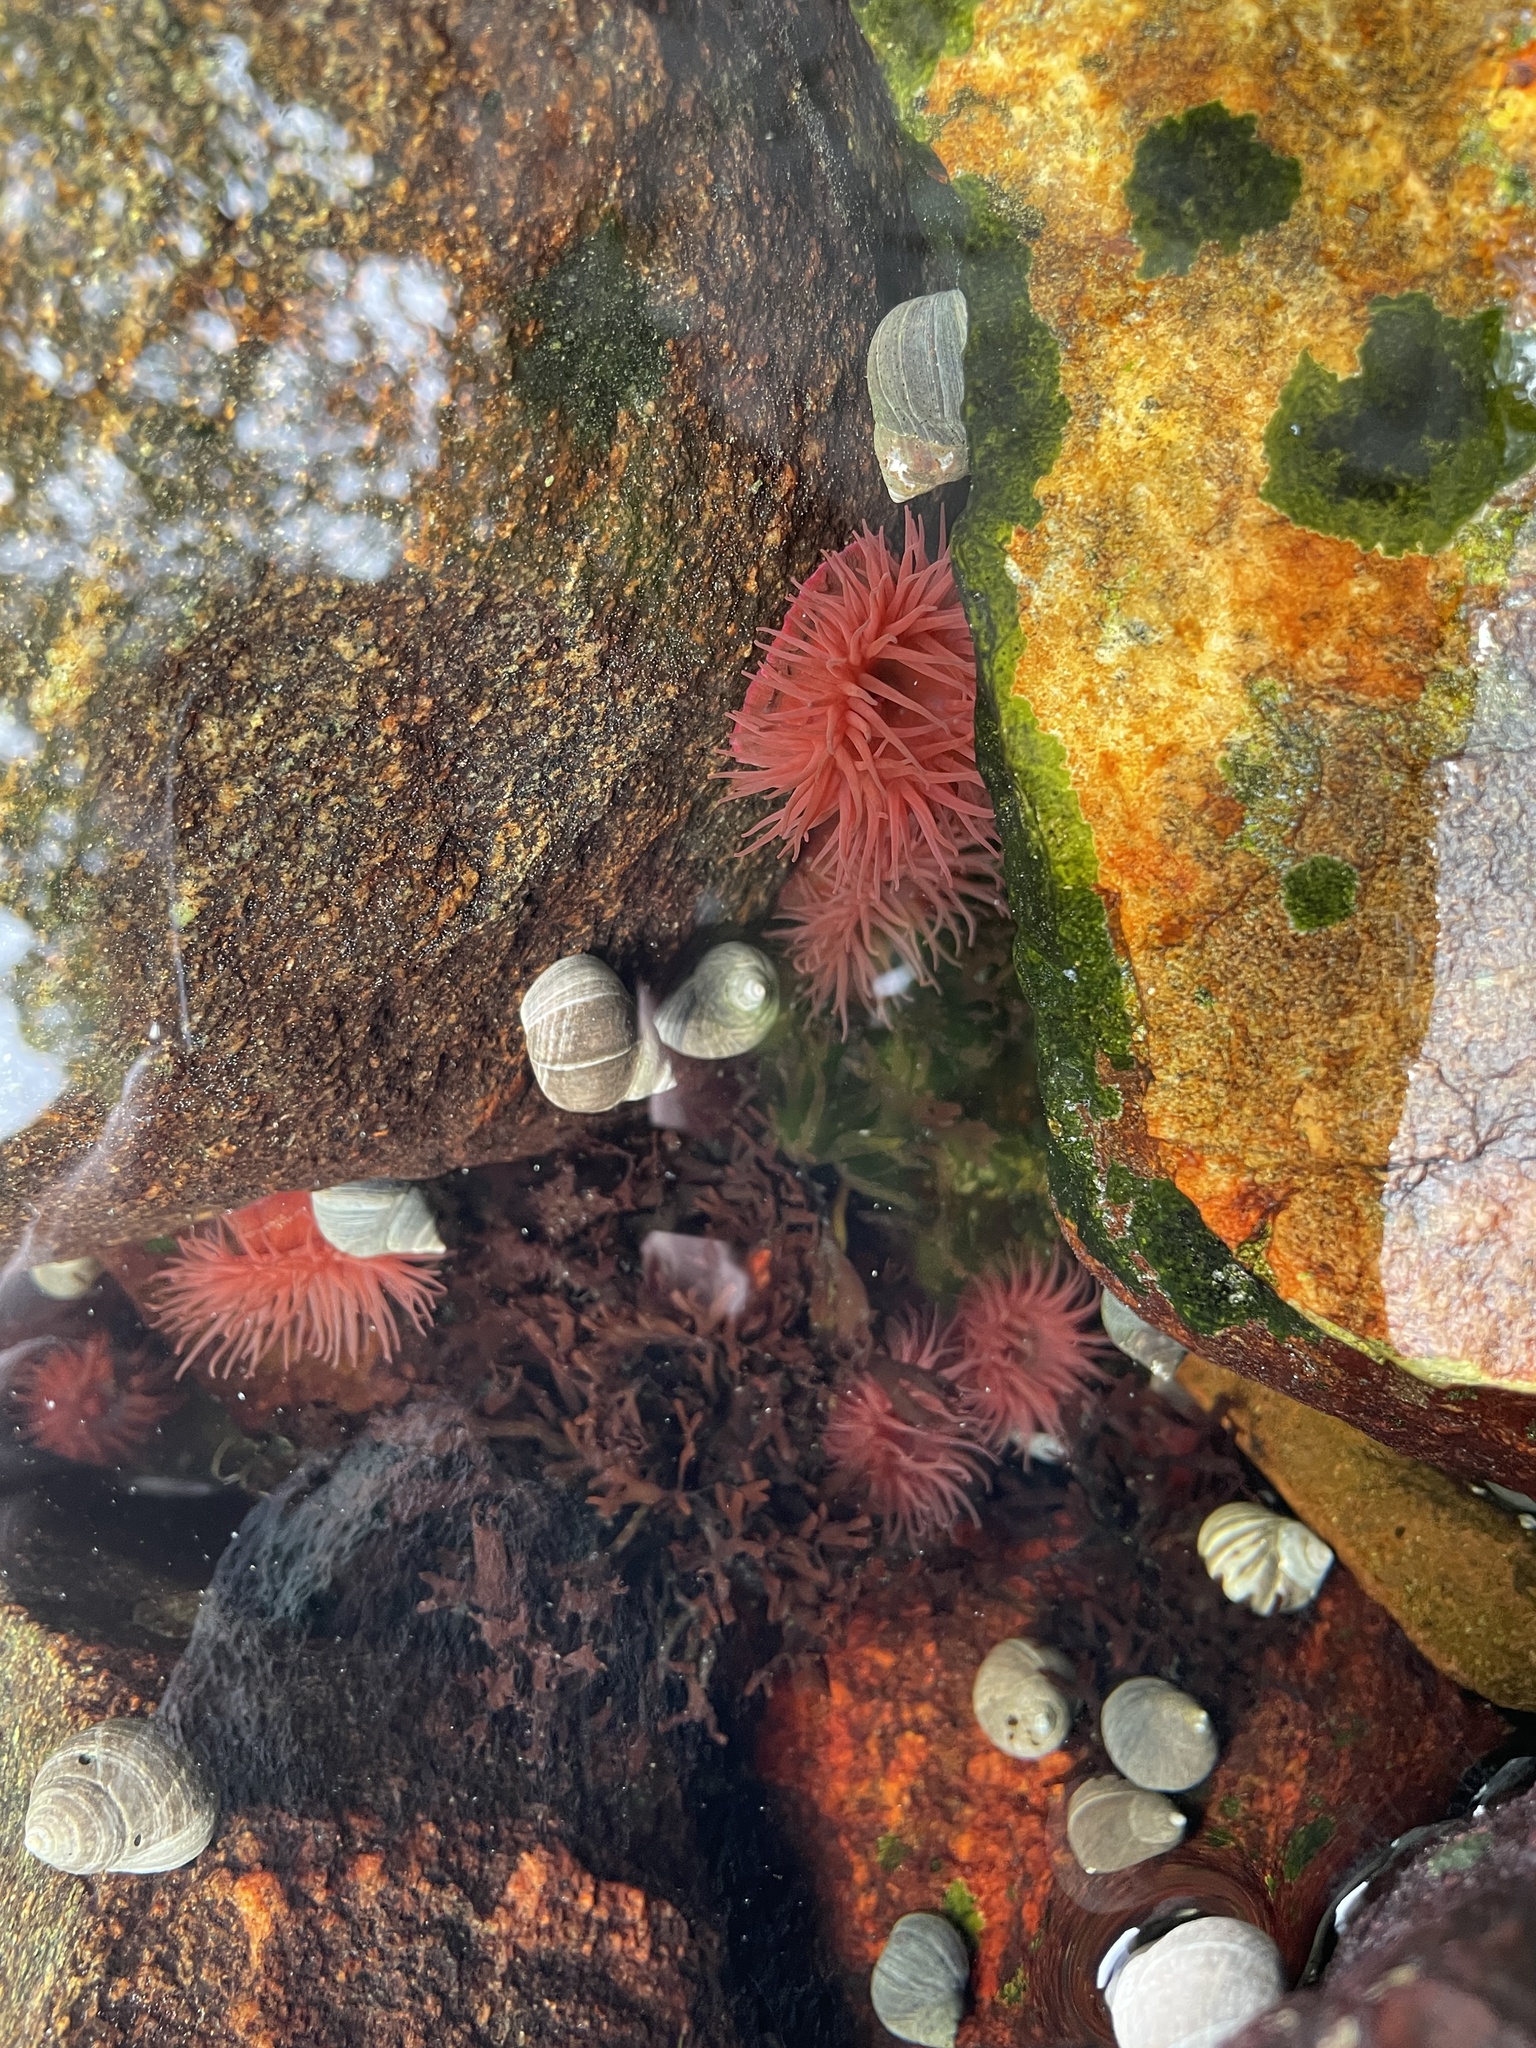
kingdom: Animalia
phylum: Cnidaria
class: Anthozoa
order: Actiniaria
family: Actiniidae
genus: Actinia
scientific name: Actinia equina
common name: Beadlet anemone
